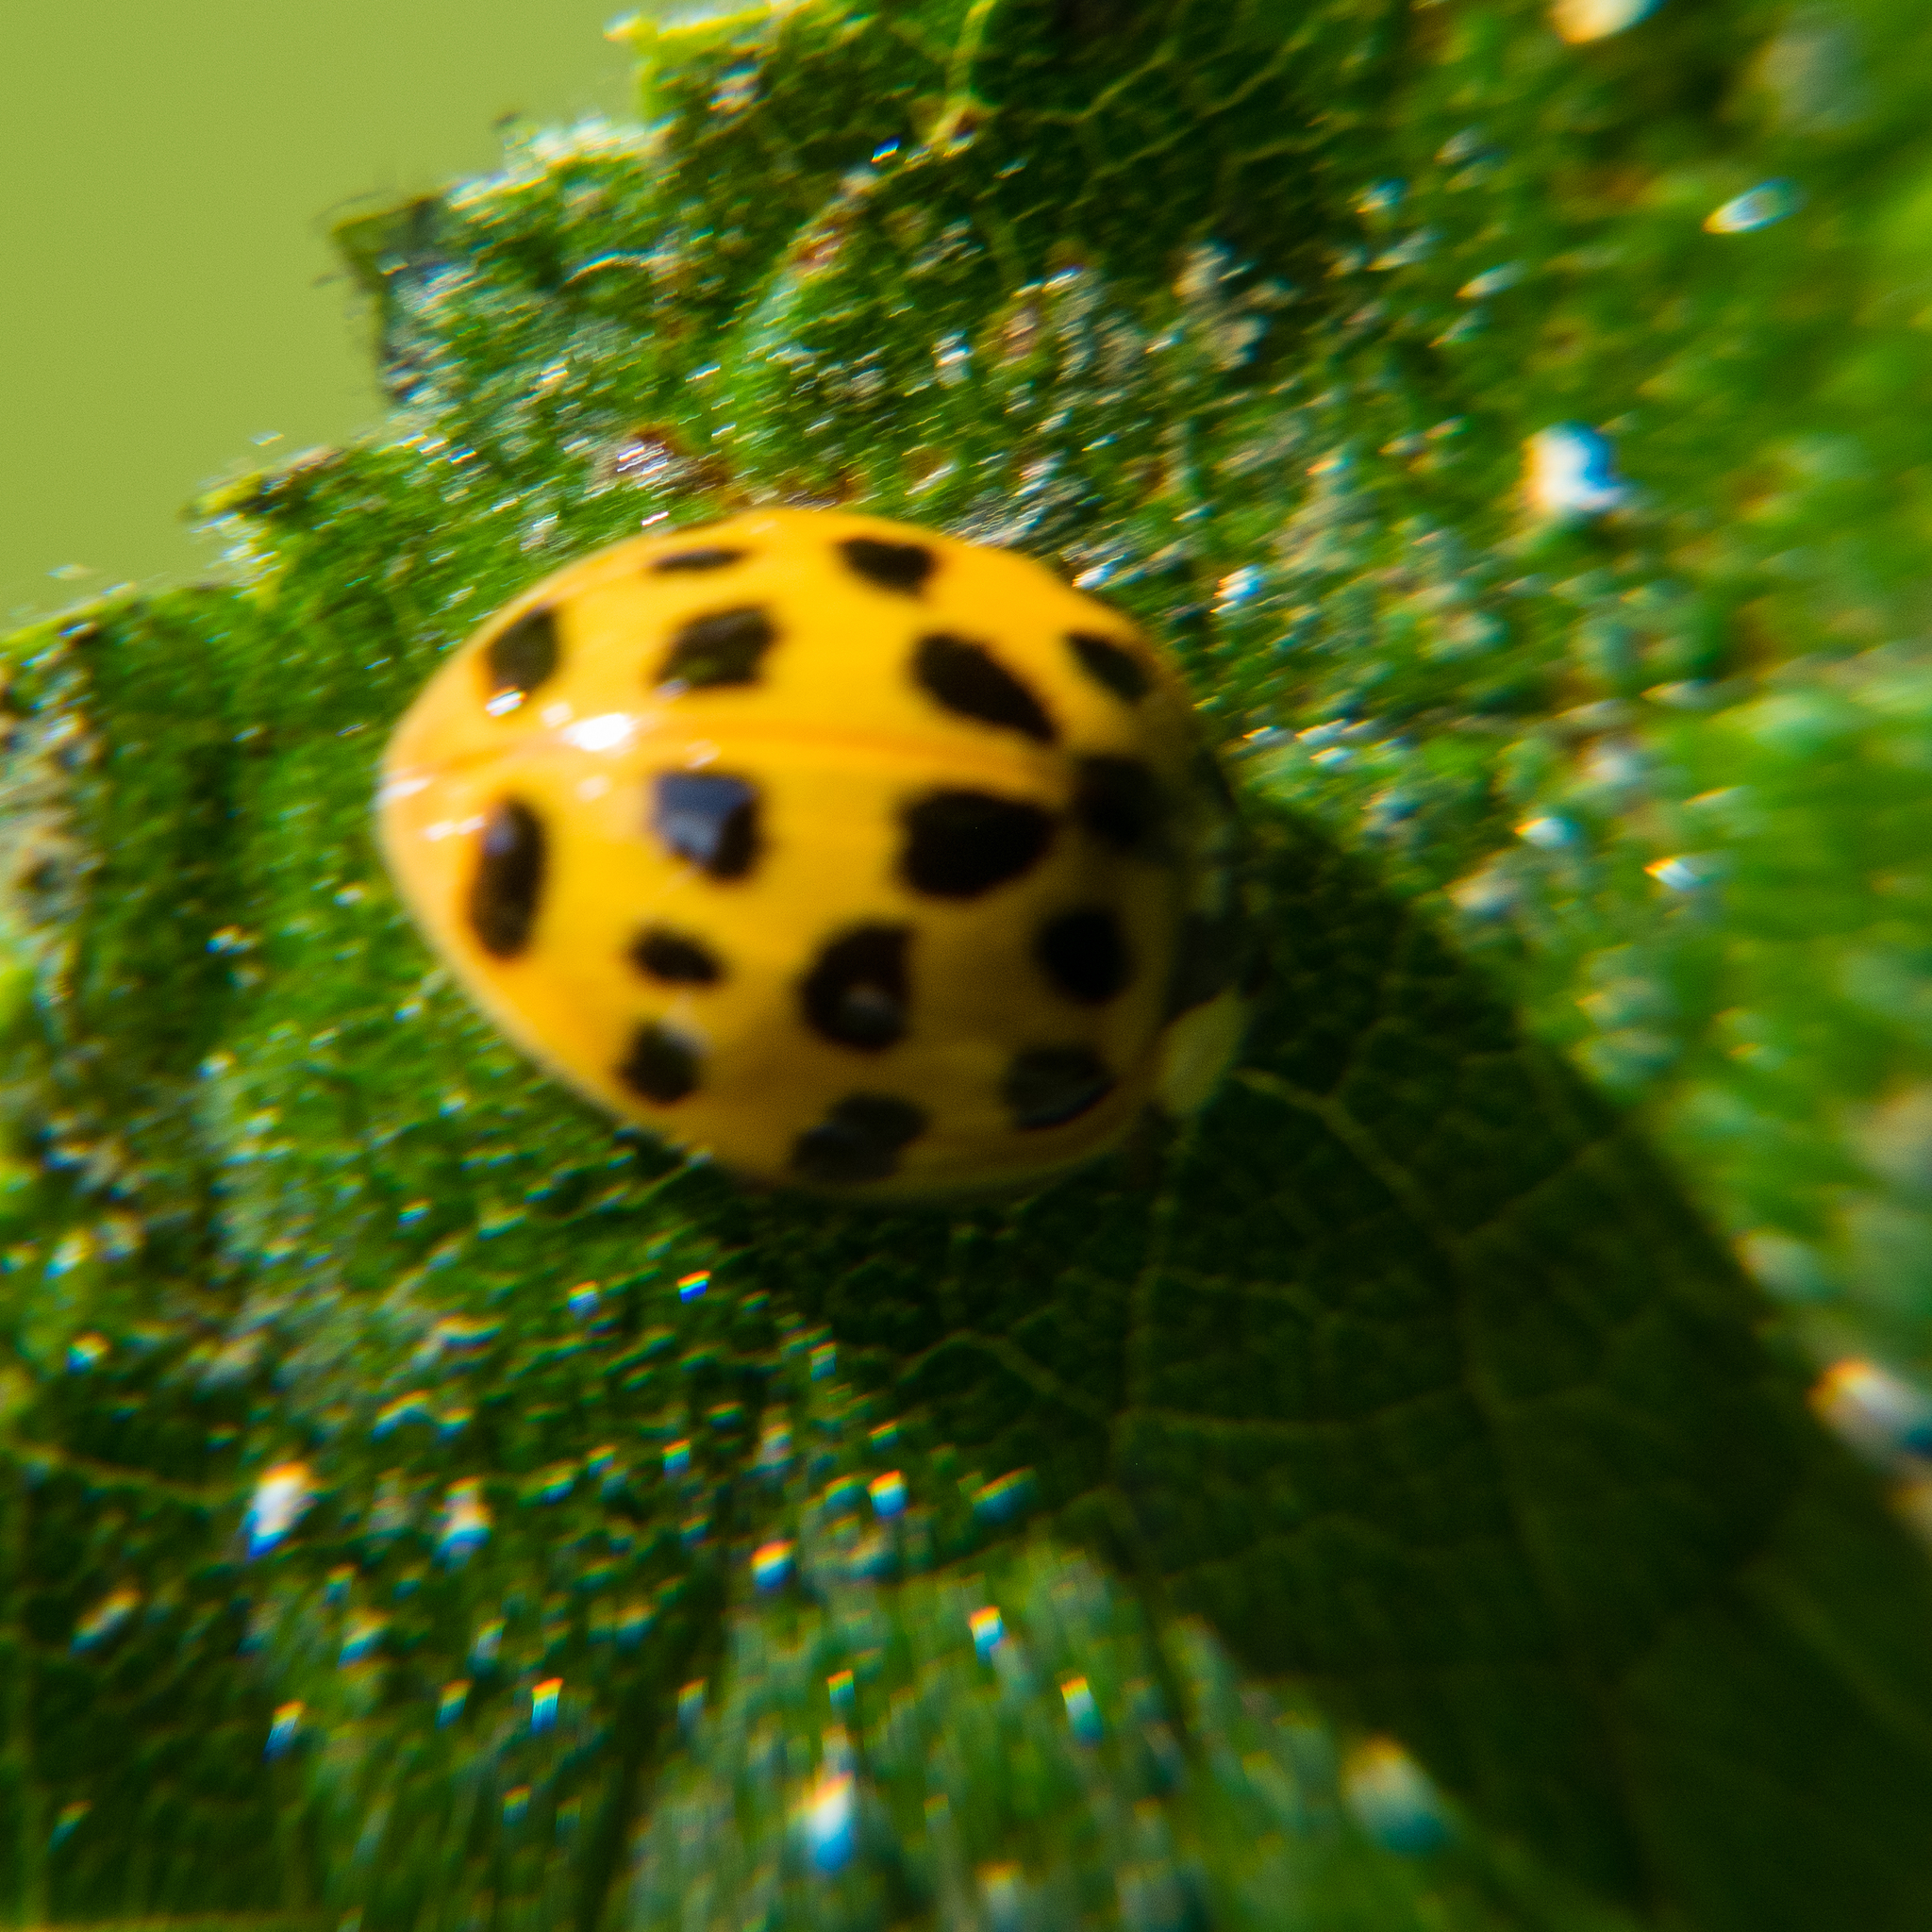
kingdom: Animalia
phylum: Arthropoda
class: Insecta
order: Coleoptera
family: Coccinellidae
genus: Harmonia
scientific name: Harmonia axyridis
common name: Harlequin ladybird
